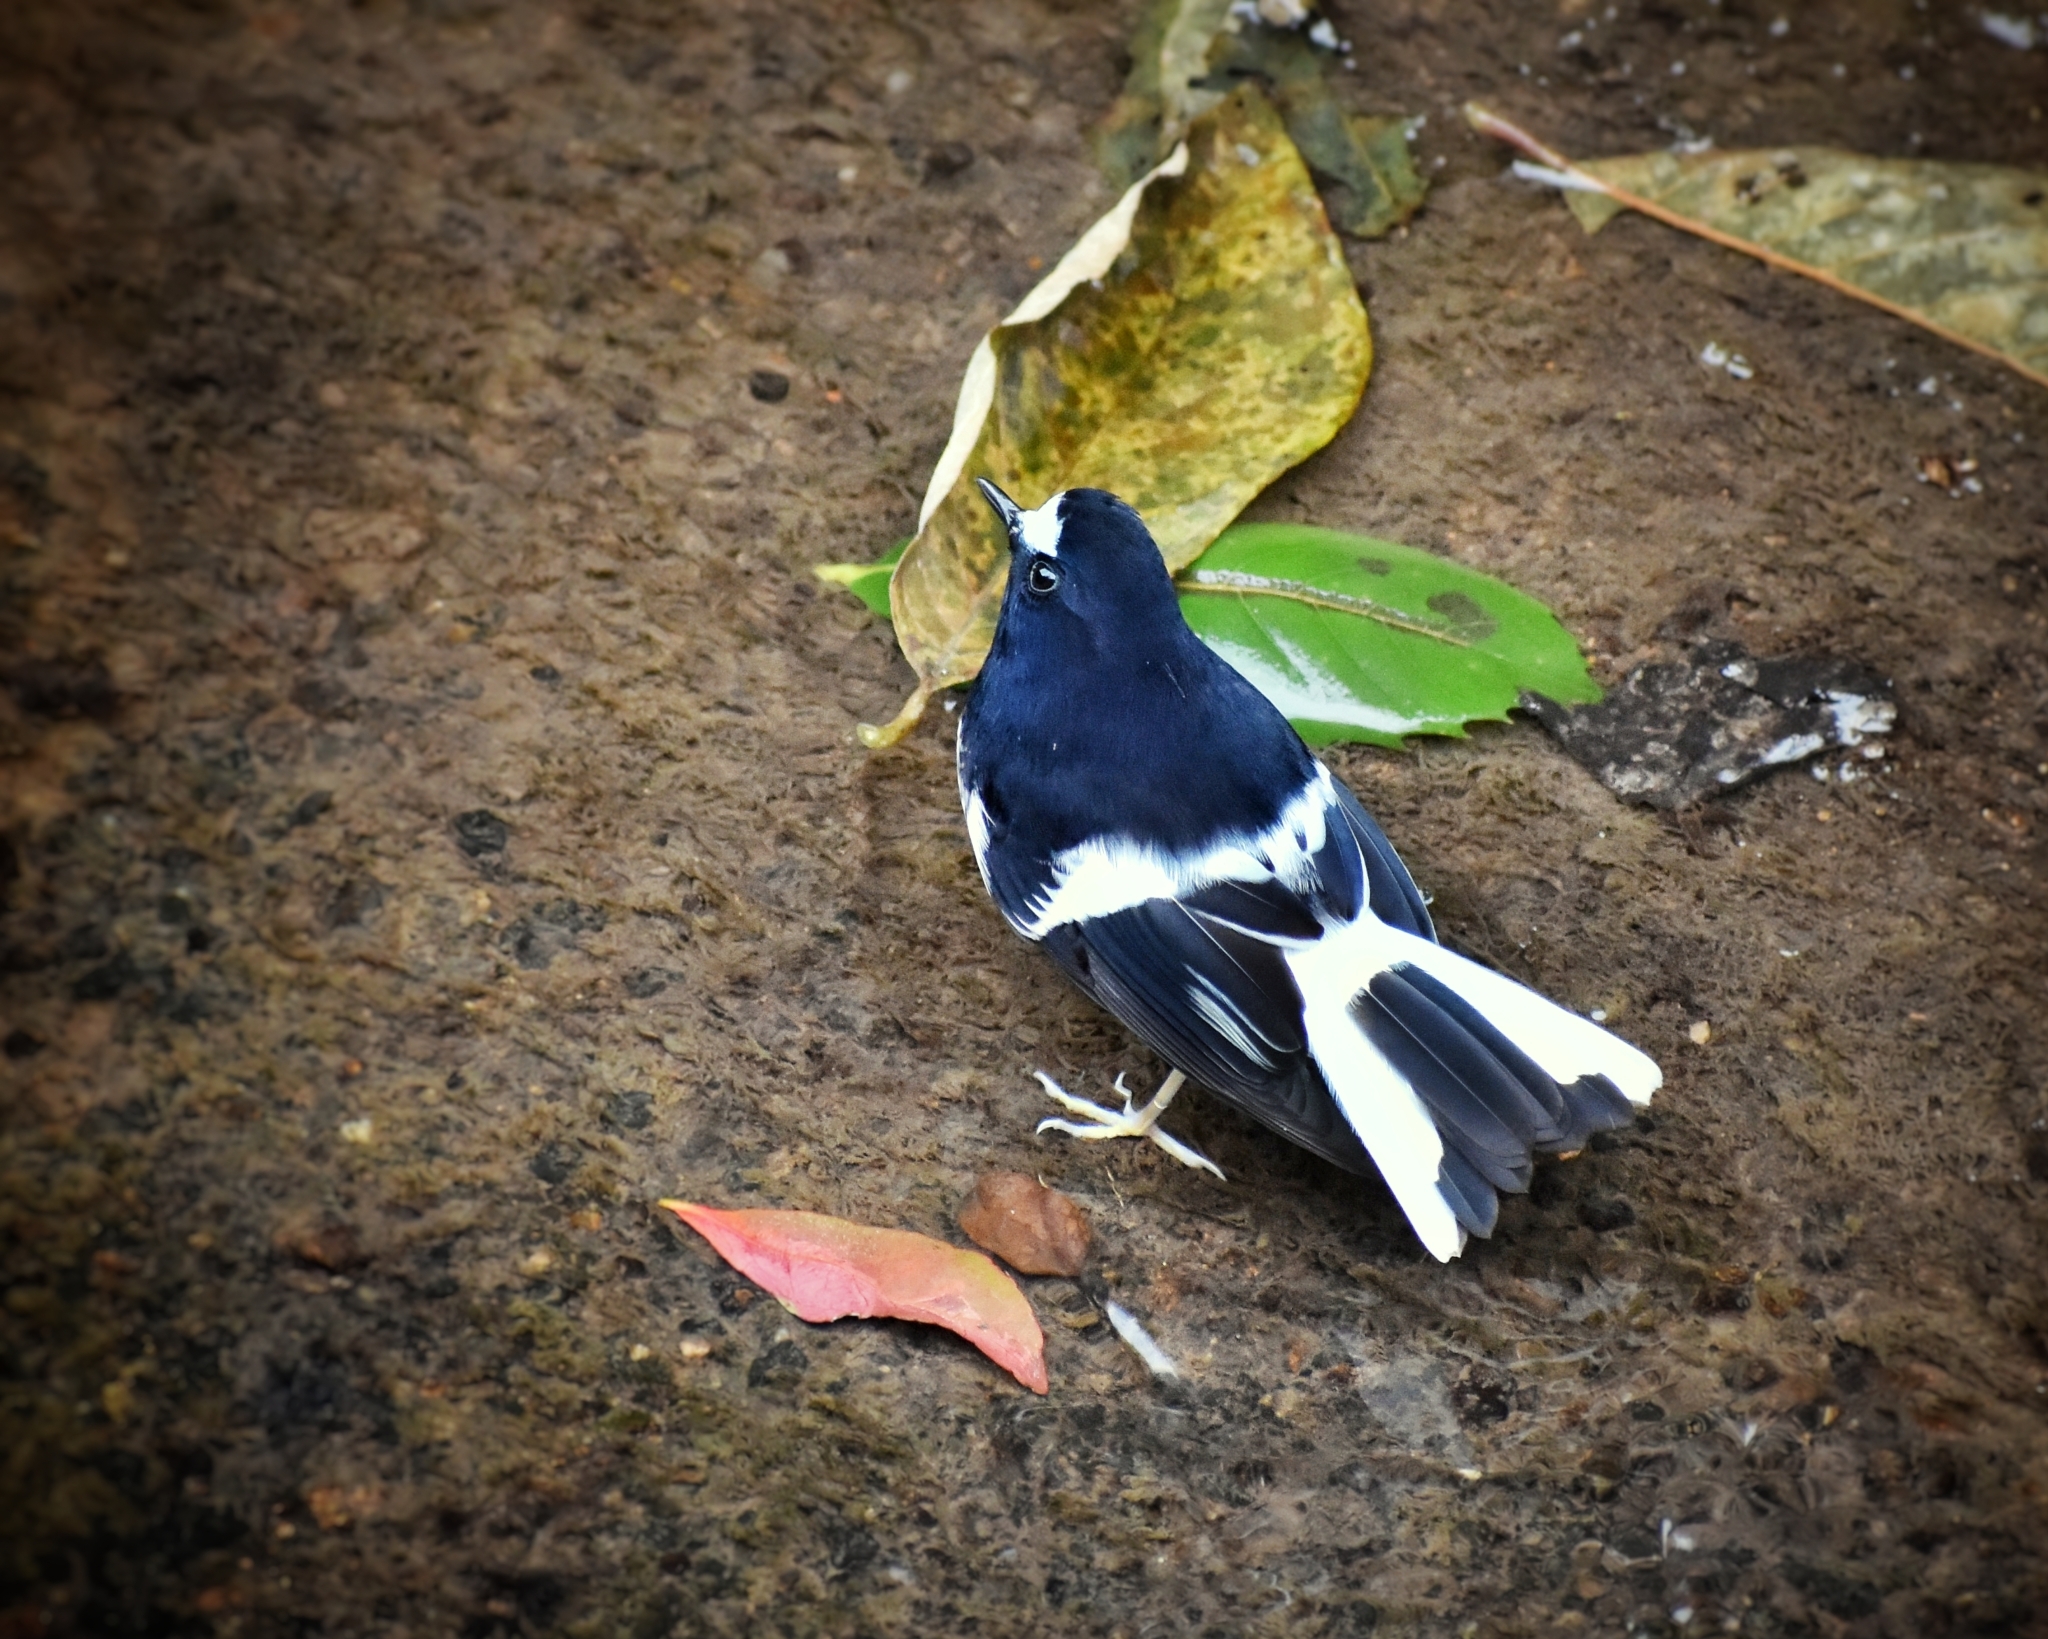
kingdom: Animalia
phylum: Chordata
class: Aves
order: Passeriformes
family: Muscicapidae
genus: Enicurus
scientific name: Enicurus scouleri
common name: Little forktail
